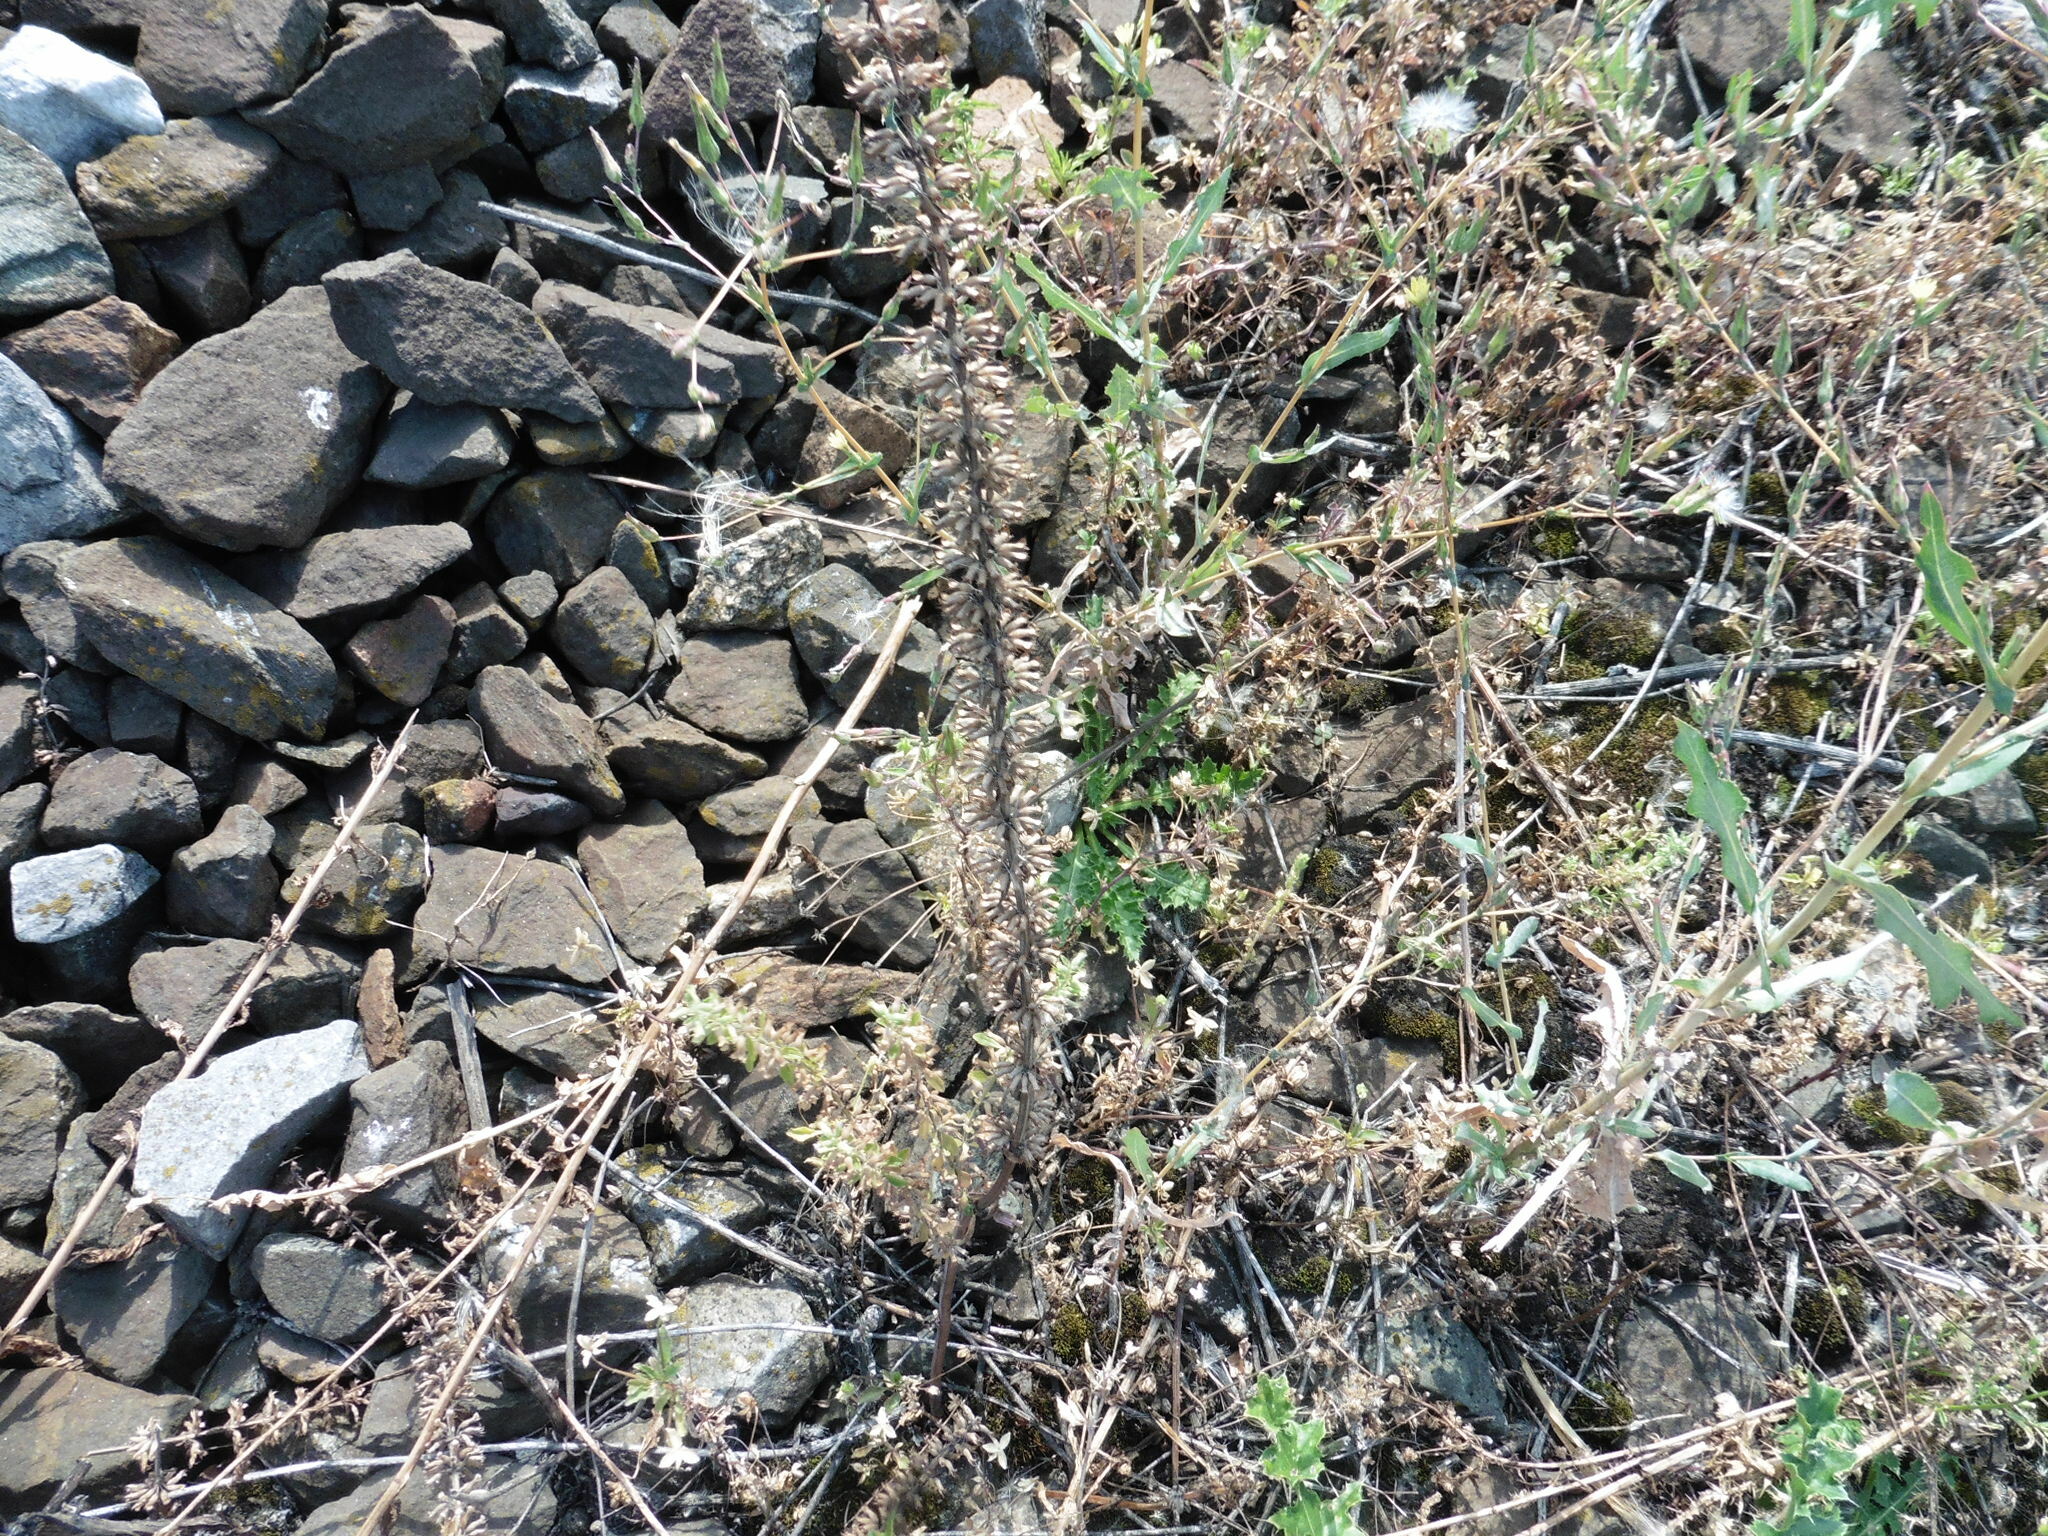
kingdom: Plantae
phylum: Tracheophyta
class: Magnoliopsida
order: Lamiales
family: Lamiaceae
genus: Dracocephalum
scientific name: Dracocephalum thymiflorum
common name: Thymeleaf dragonhead
